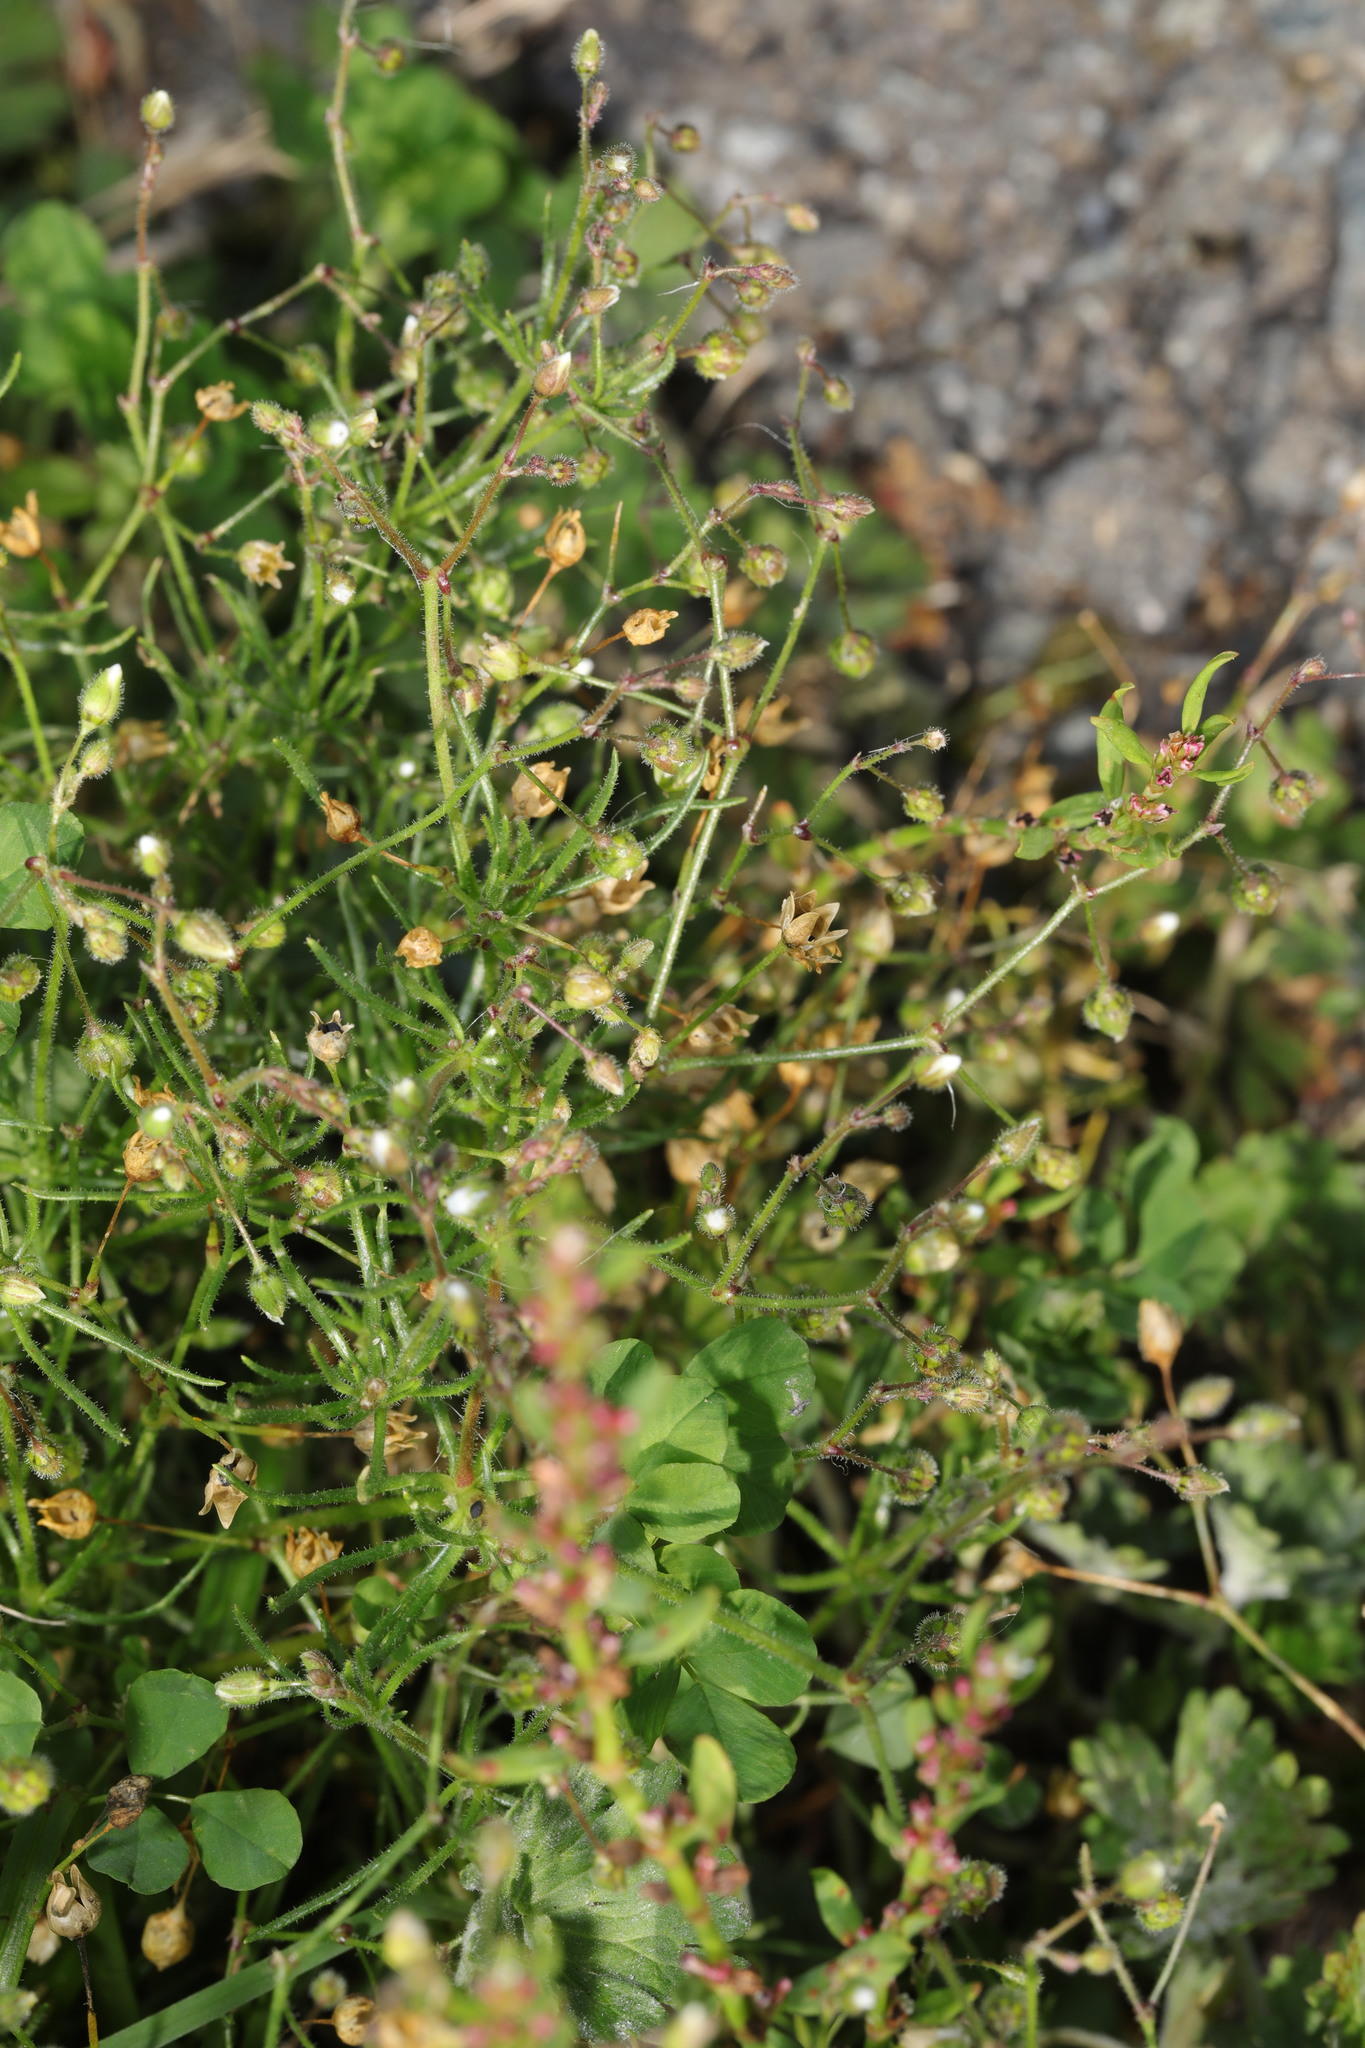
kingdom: Plantae
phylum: Tracheophyta
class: Magnoliopsida
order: Caryophyllales
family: Caryophyllaceae
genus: Spergula
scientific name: Spergula arvensis
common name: Corn spurrey
